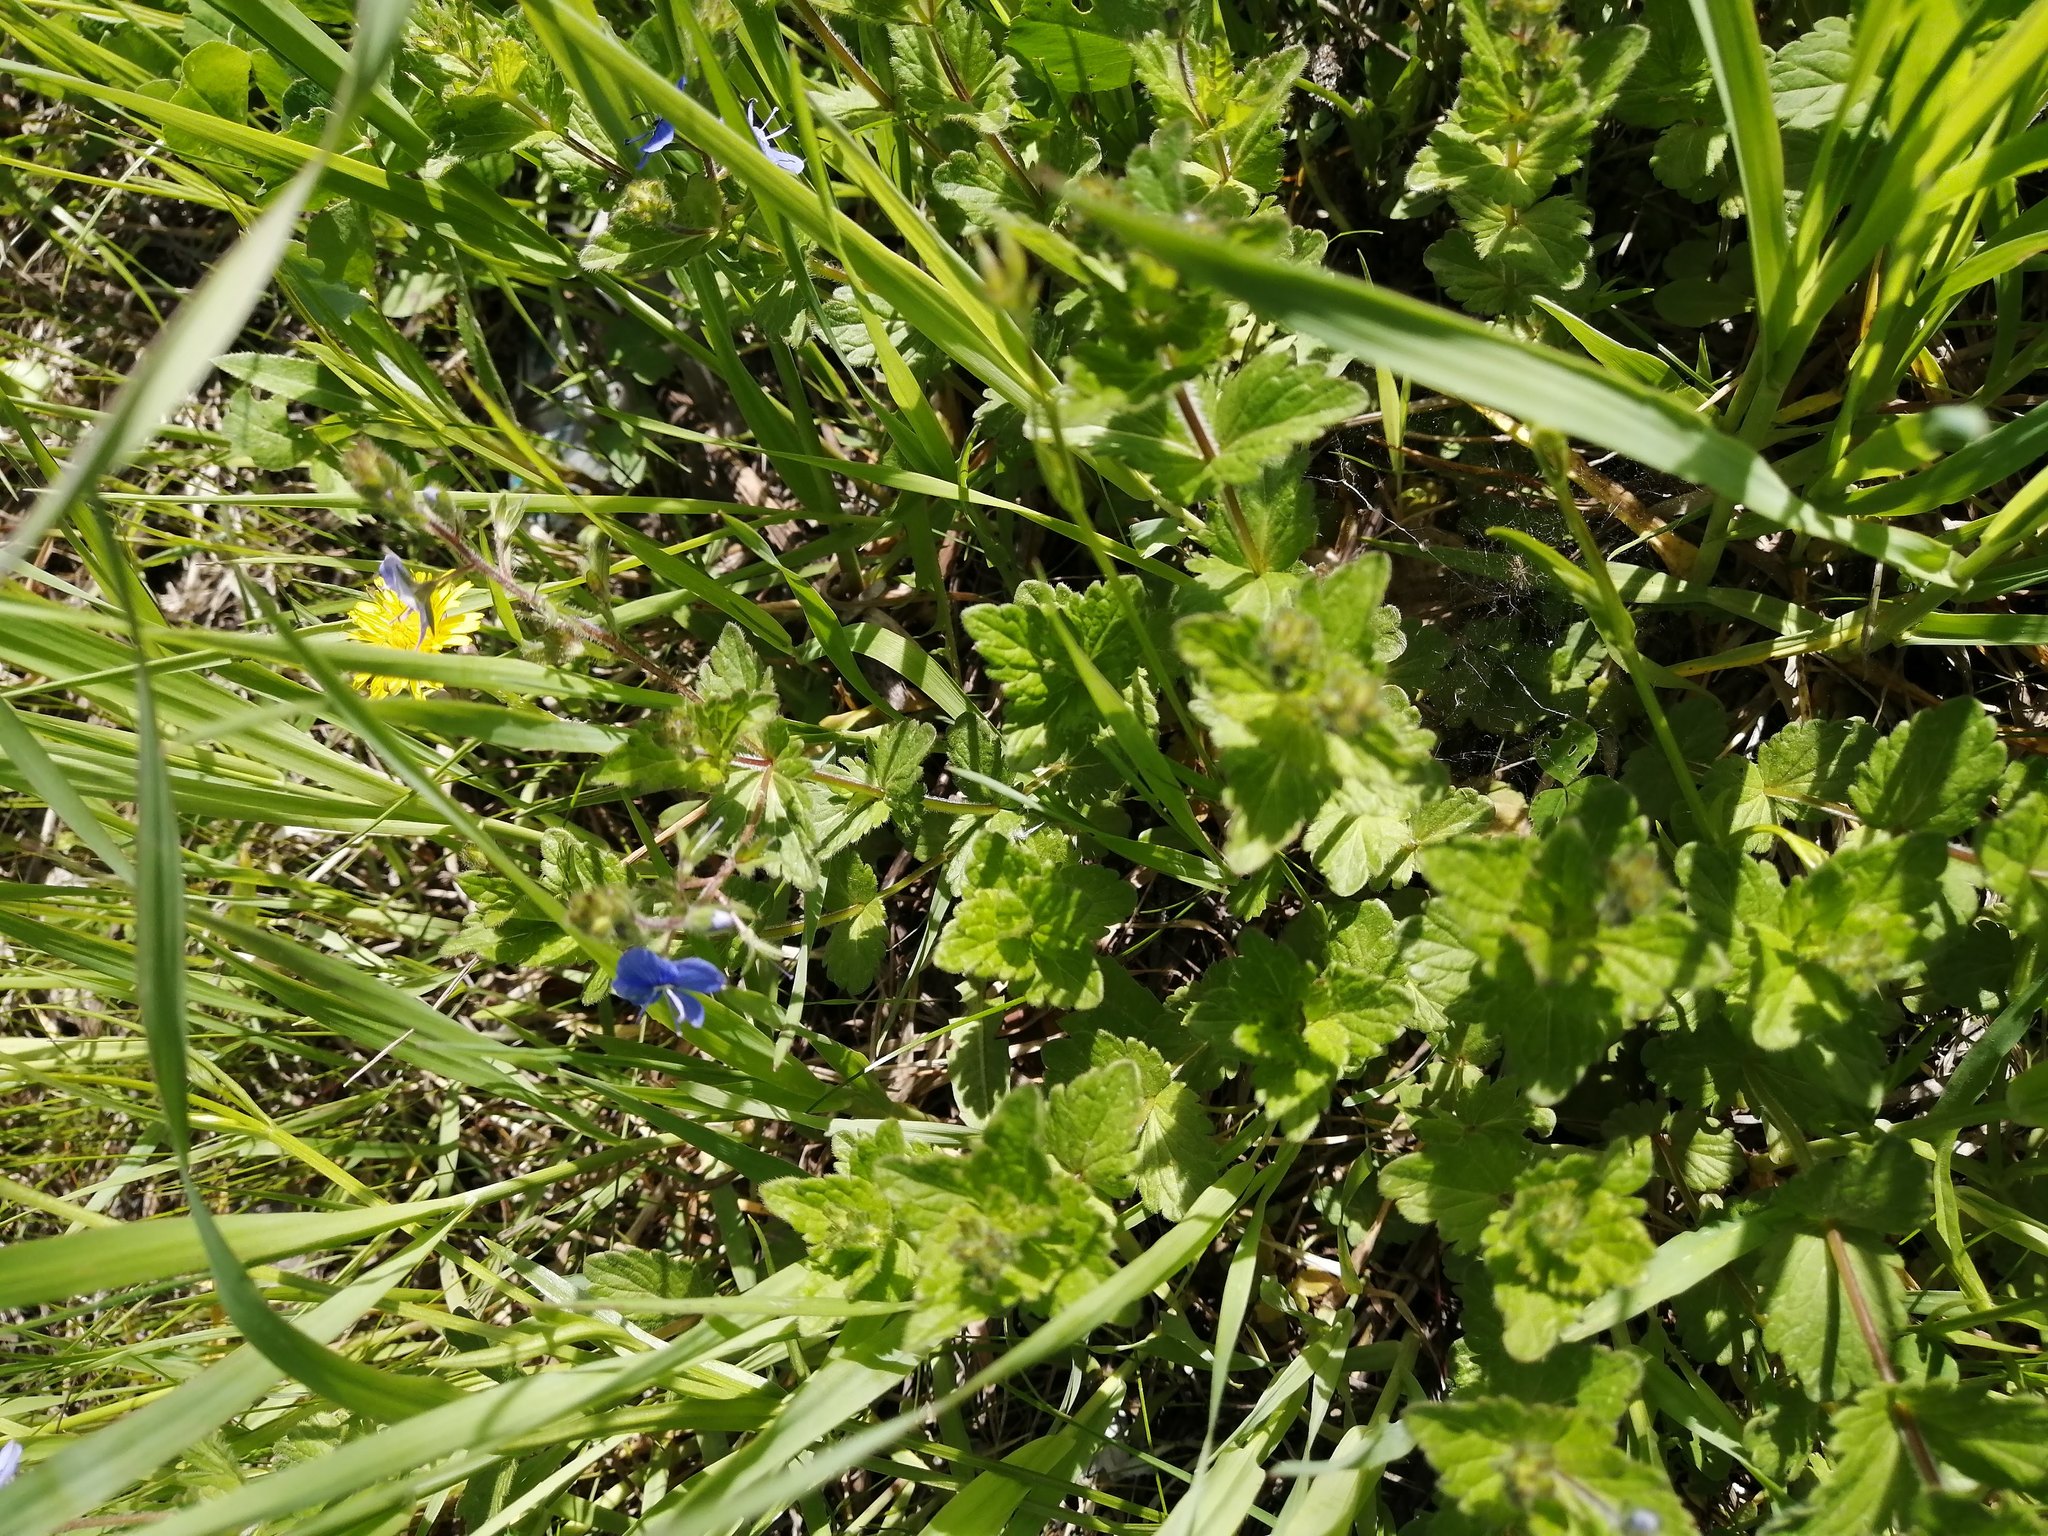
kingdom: Plantae
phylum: Tracheophyta
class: Magnoliopsida
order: Lamiales
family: Plantaginaceae
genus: Veronica
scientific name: Veronica chamaedrys
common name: Germander speedwell
